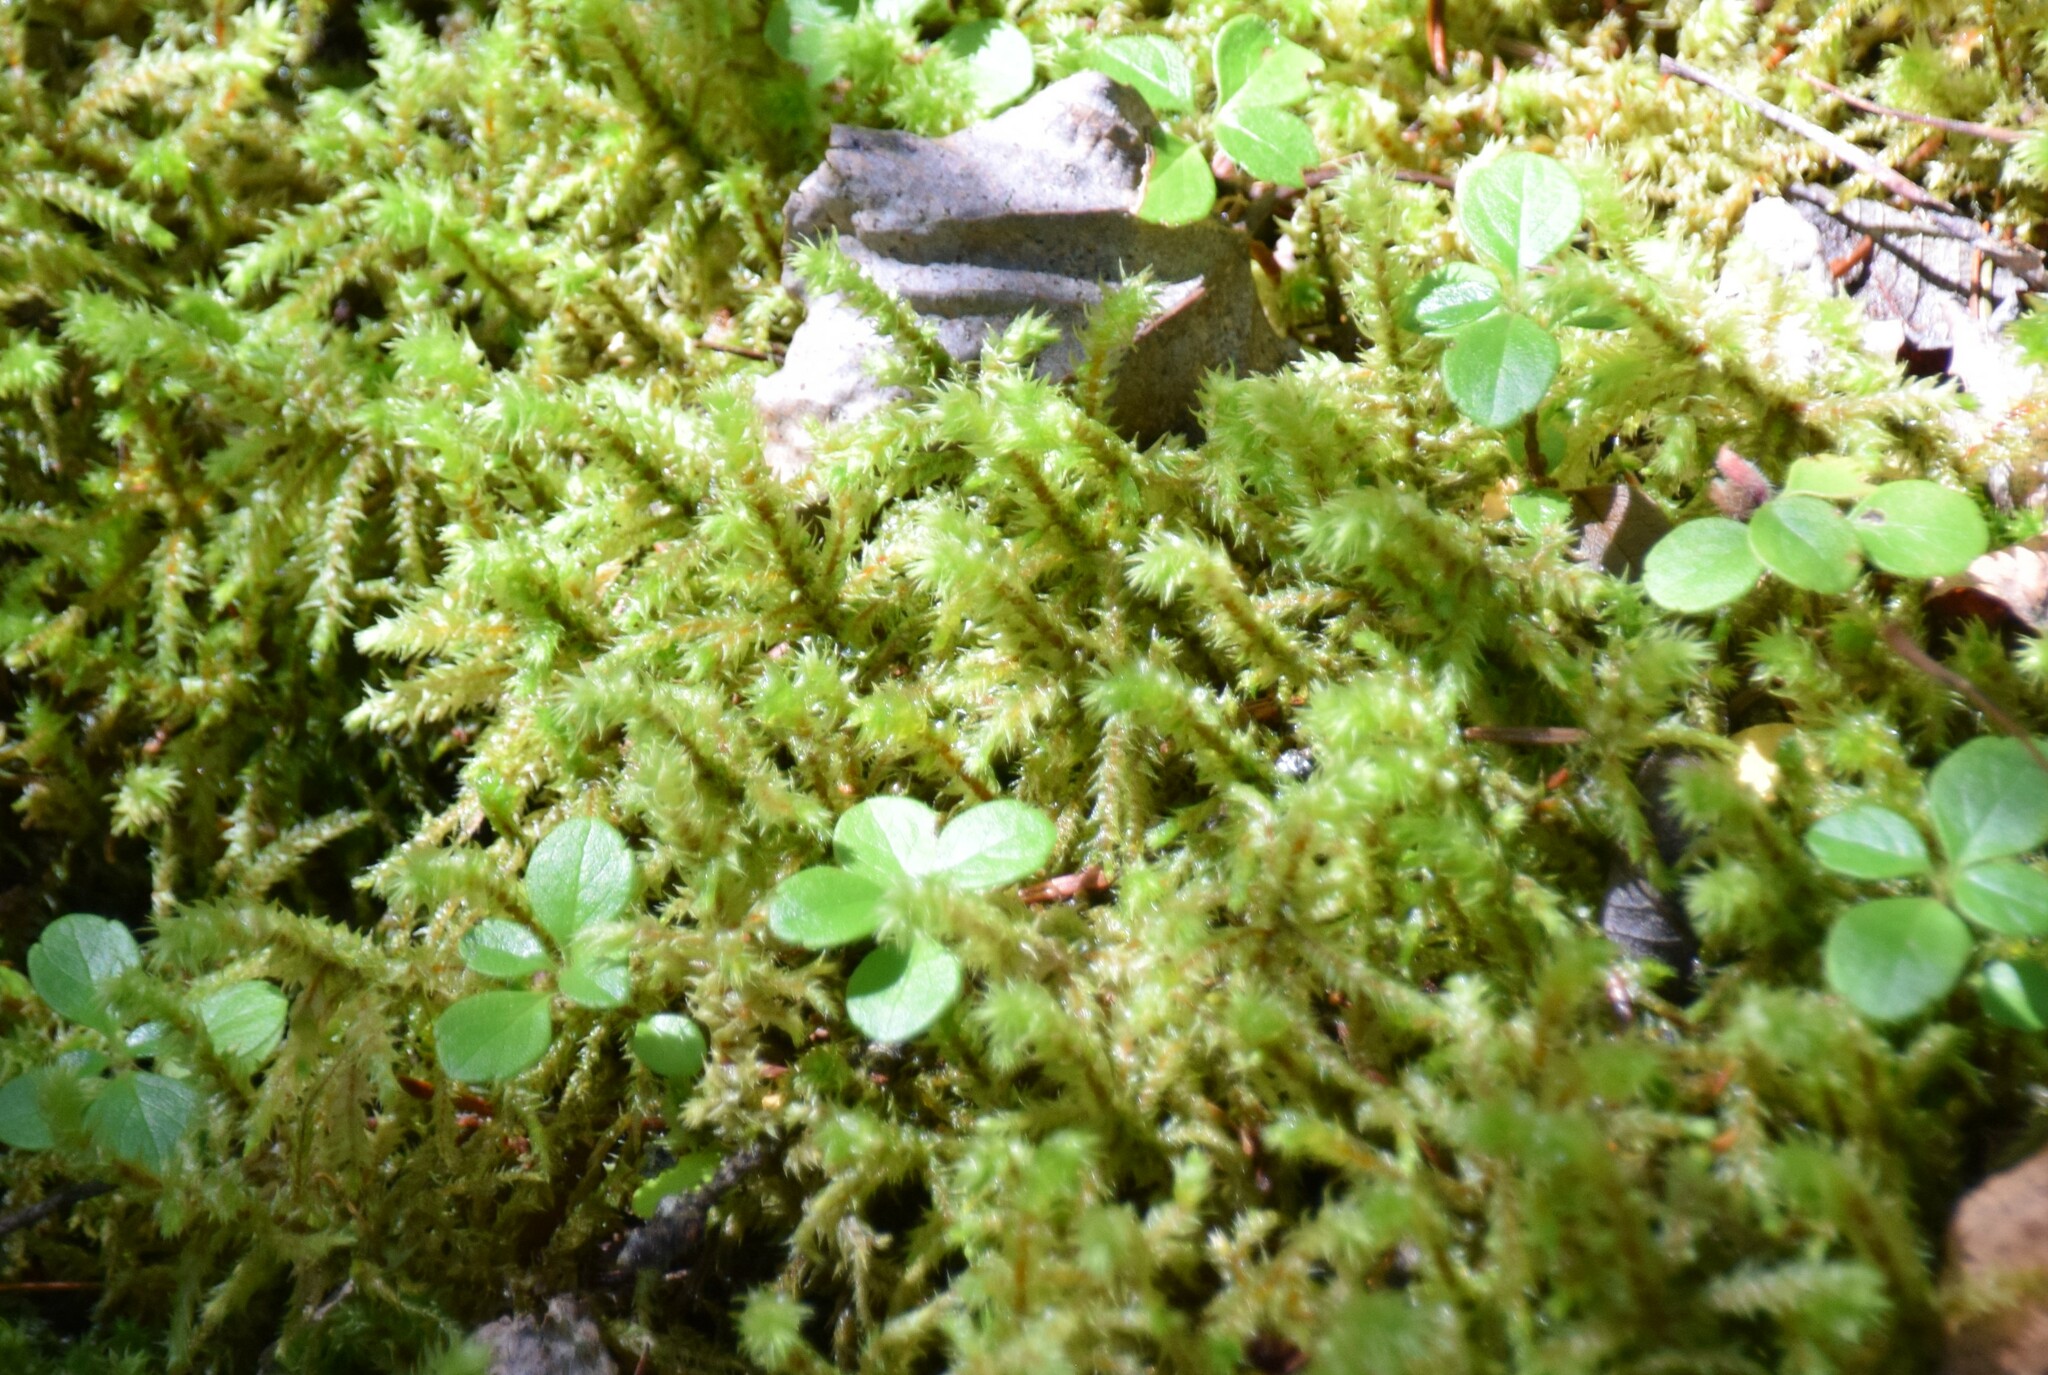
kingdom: Plantae
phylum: Bryophyta
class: Bryopsida
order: Hypnales
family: Hylocomiaceae
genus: Hylocomiadelphus
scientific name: Hylocomiadelphus triquetrus
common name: Rough goose neck moss
